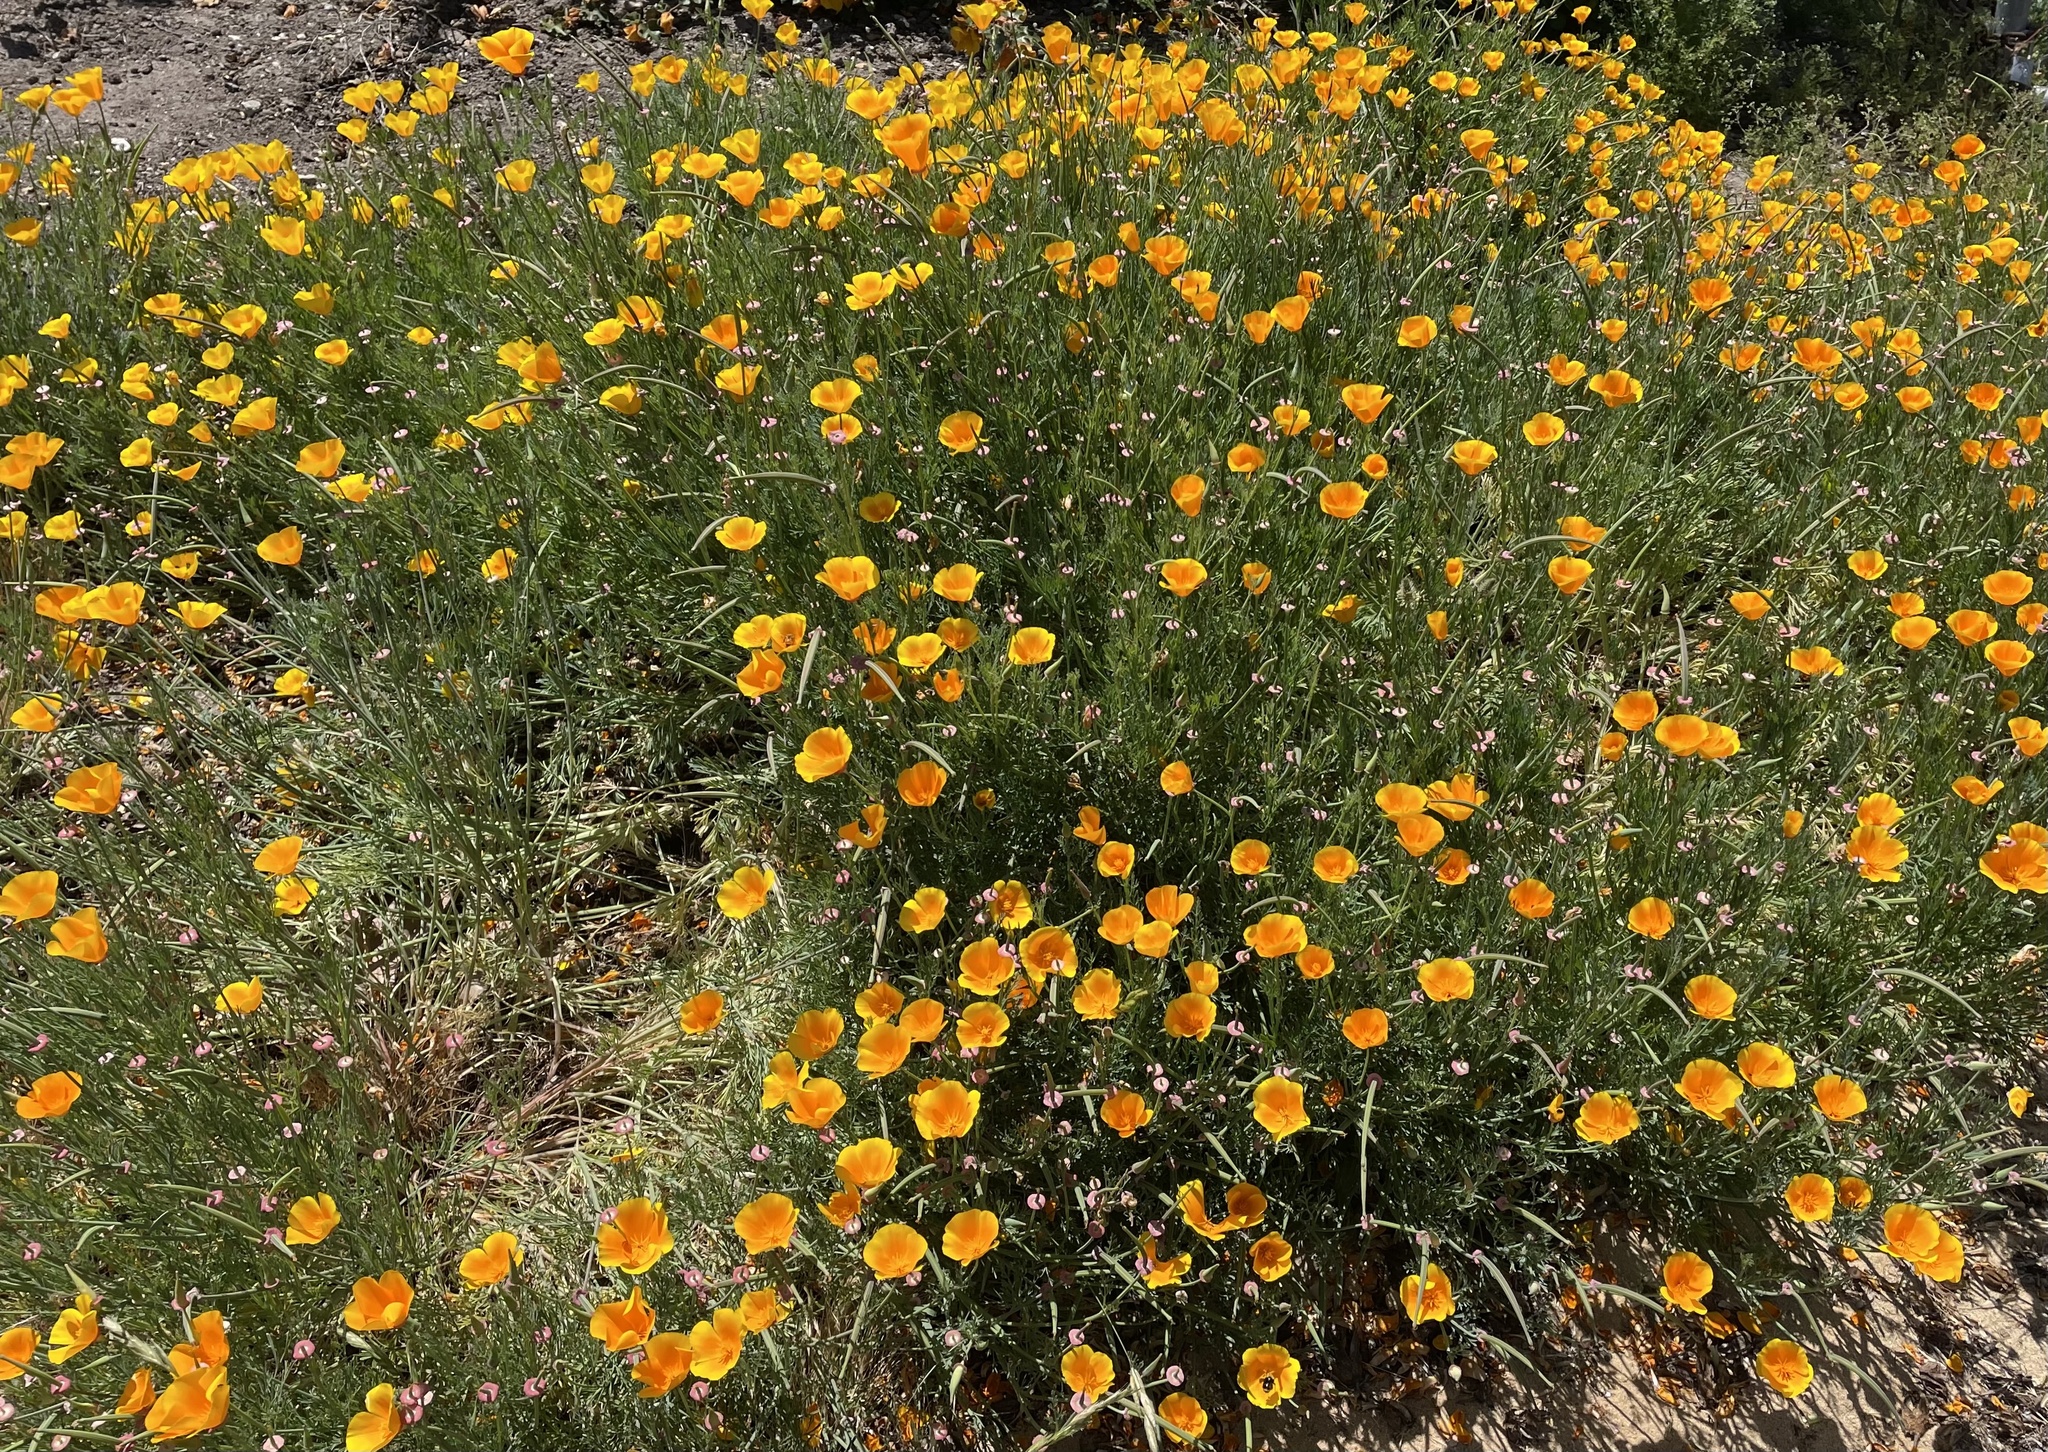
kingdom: Plantae
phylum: Tracheophyta
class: Magnoliopsida
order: Ranunculales
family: Papaveraceae
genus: Eschscholzia
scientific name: Eschscholzia californica
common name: California poppy
